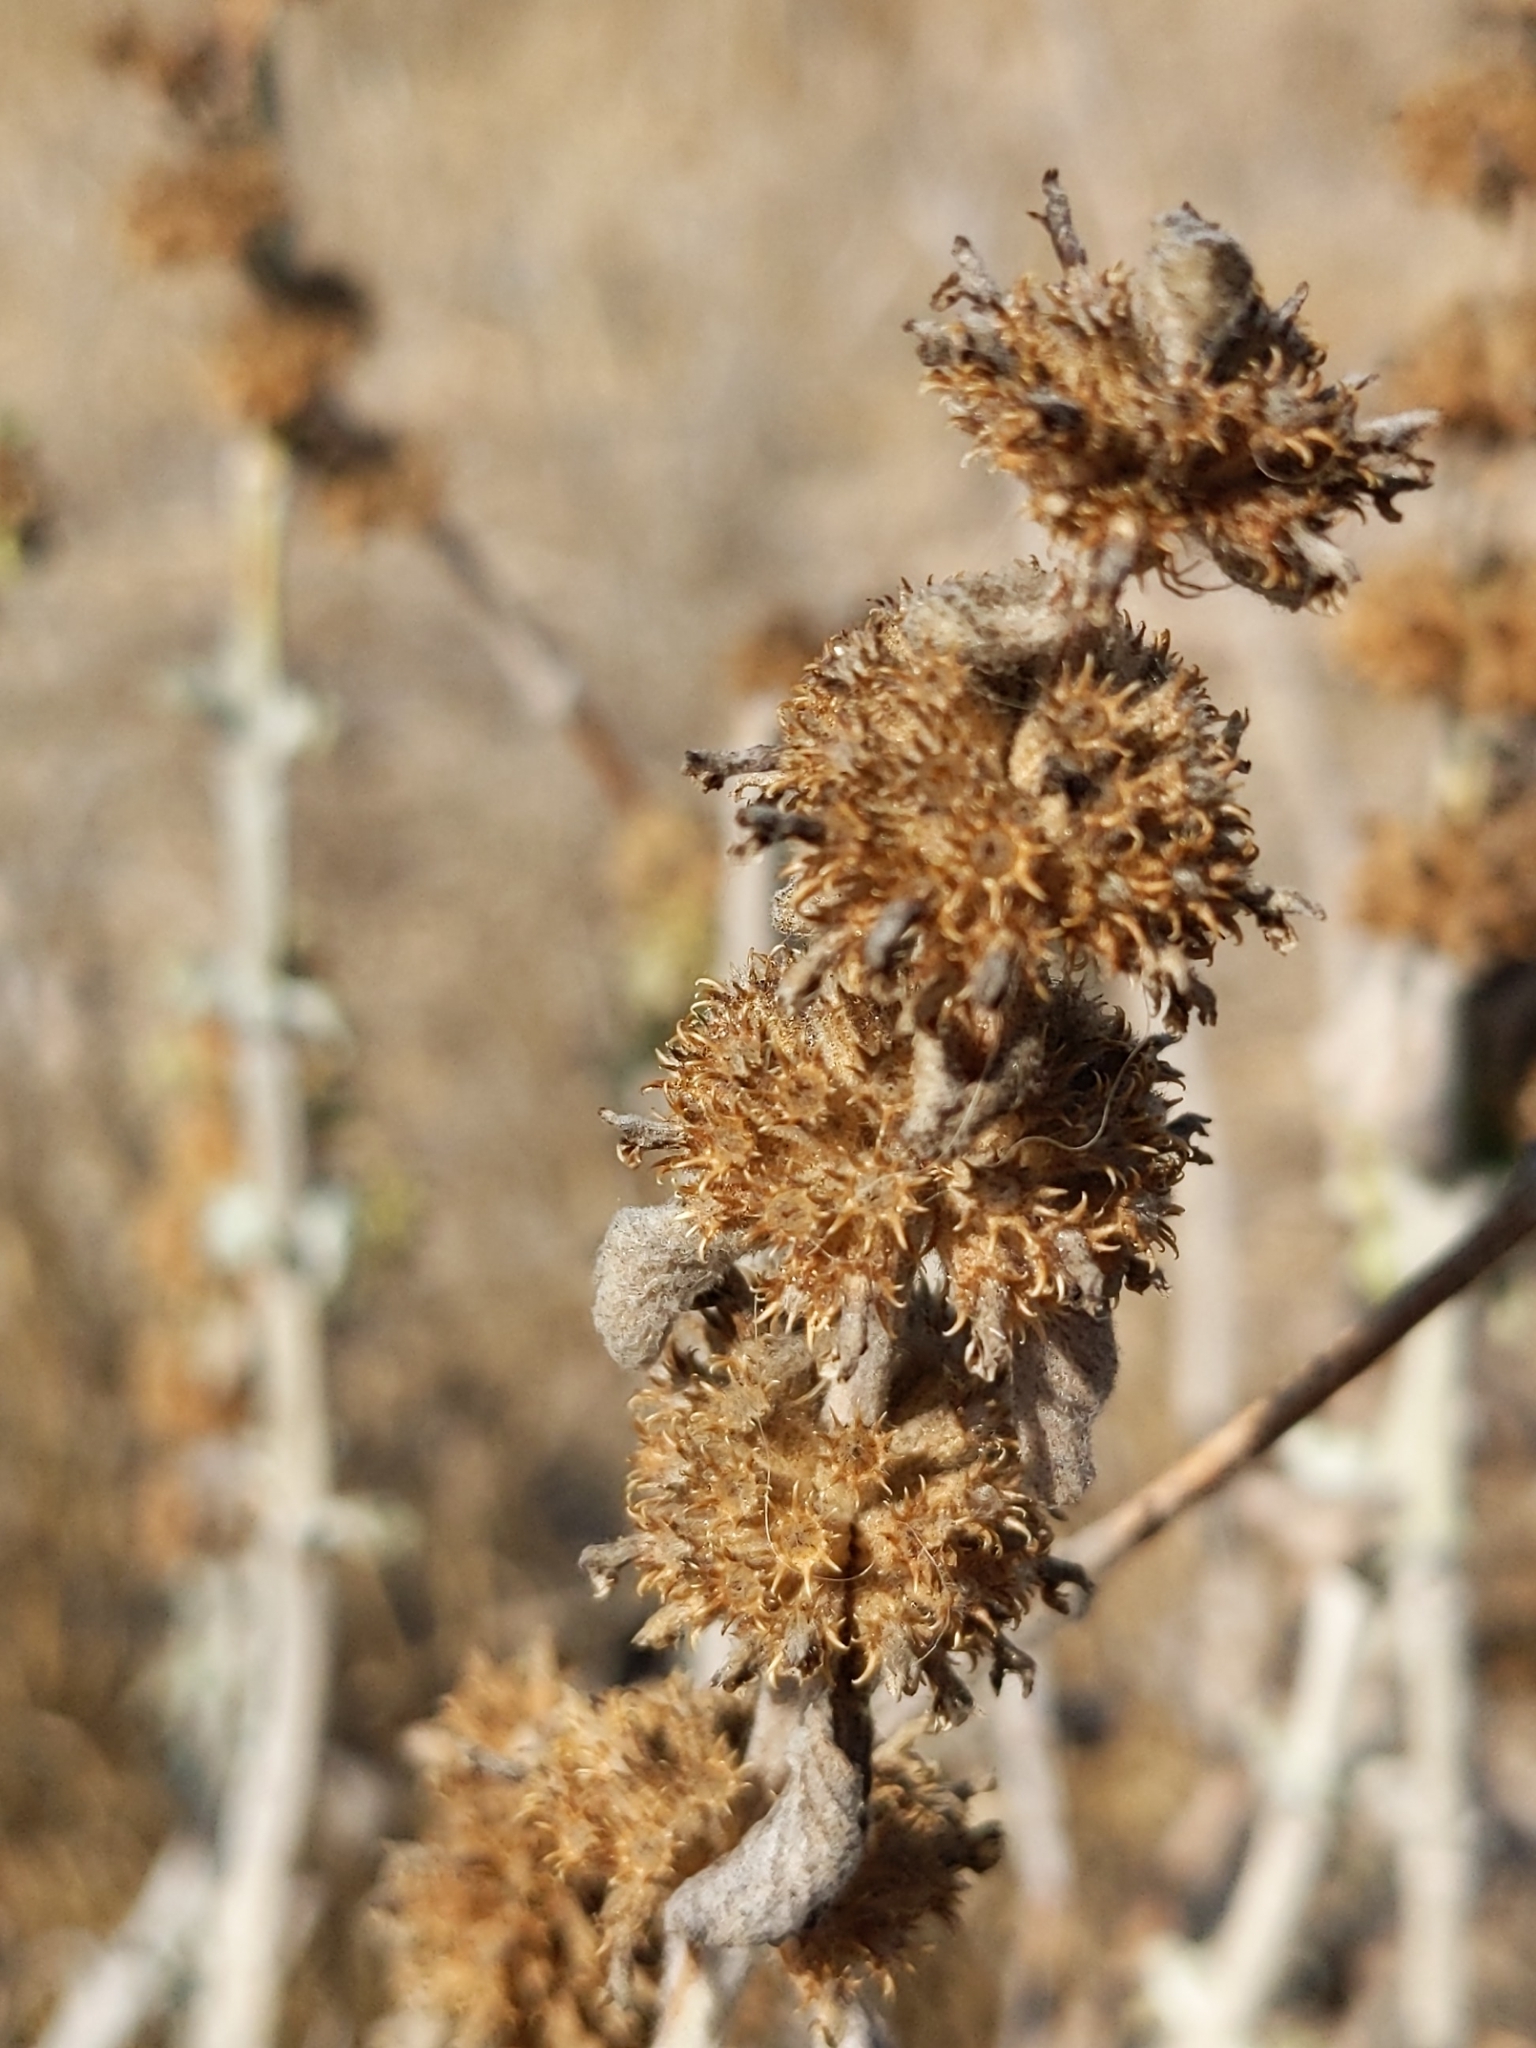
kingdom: Plantae
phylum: Tracheophyta
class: Magnoliopsida
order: Lamiales
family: Lamiaceae
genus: Marrubium
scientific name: Marrubium vulgare
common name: Horehound
